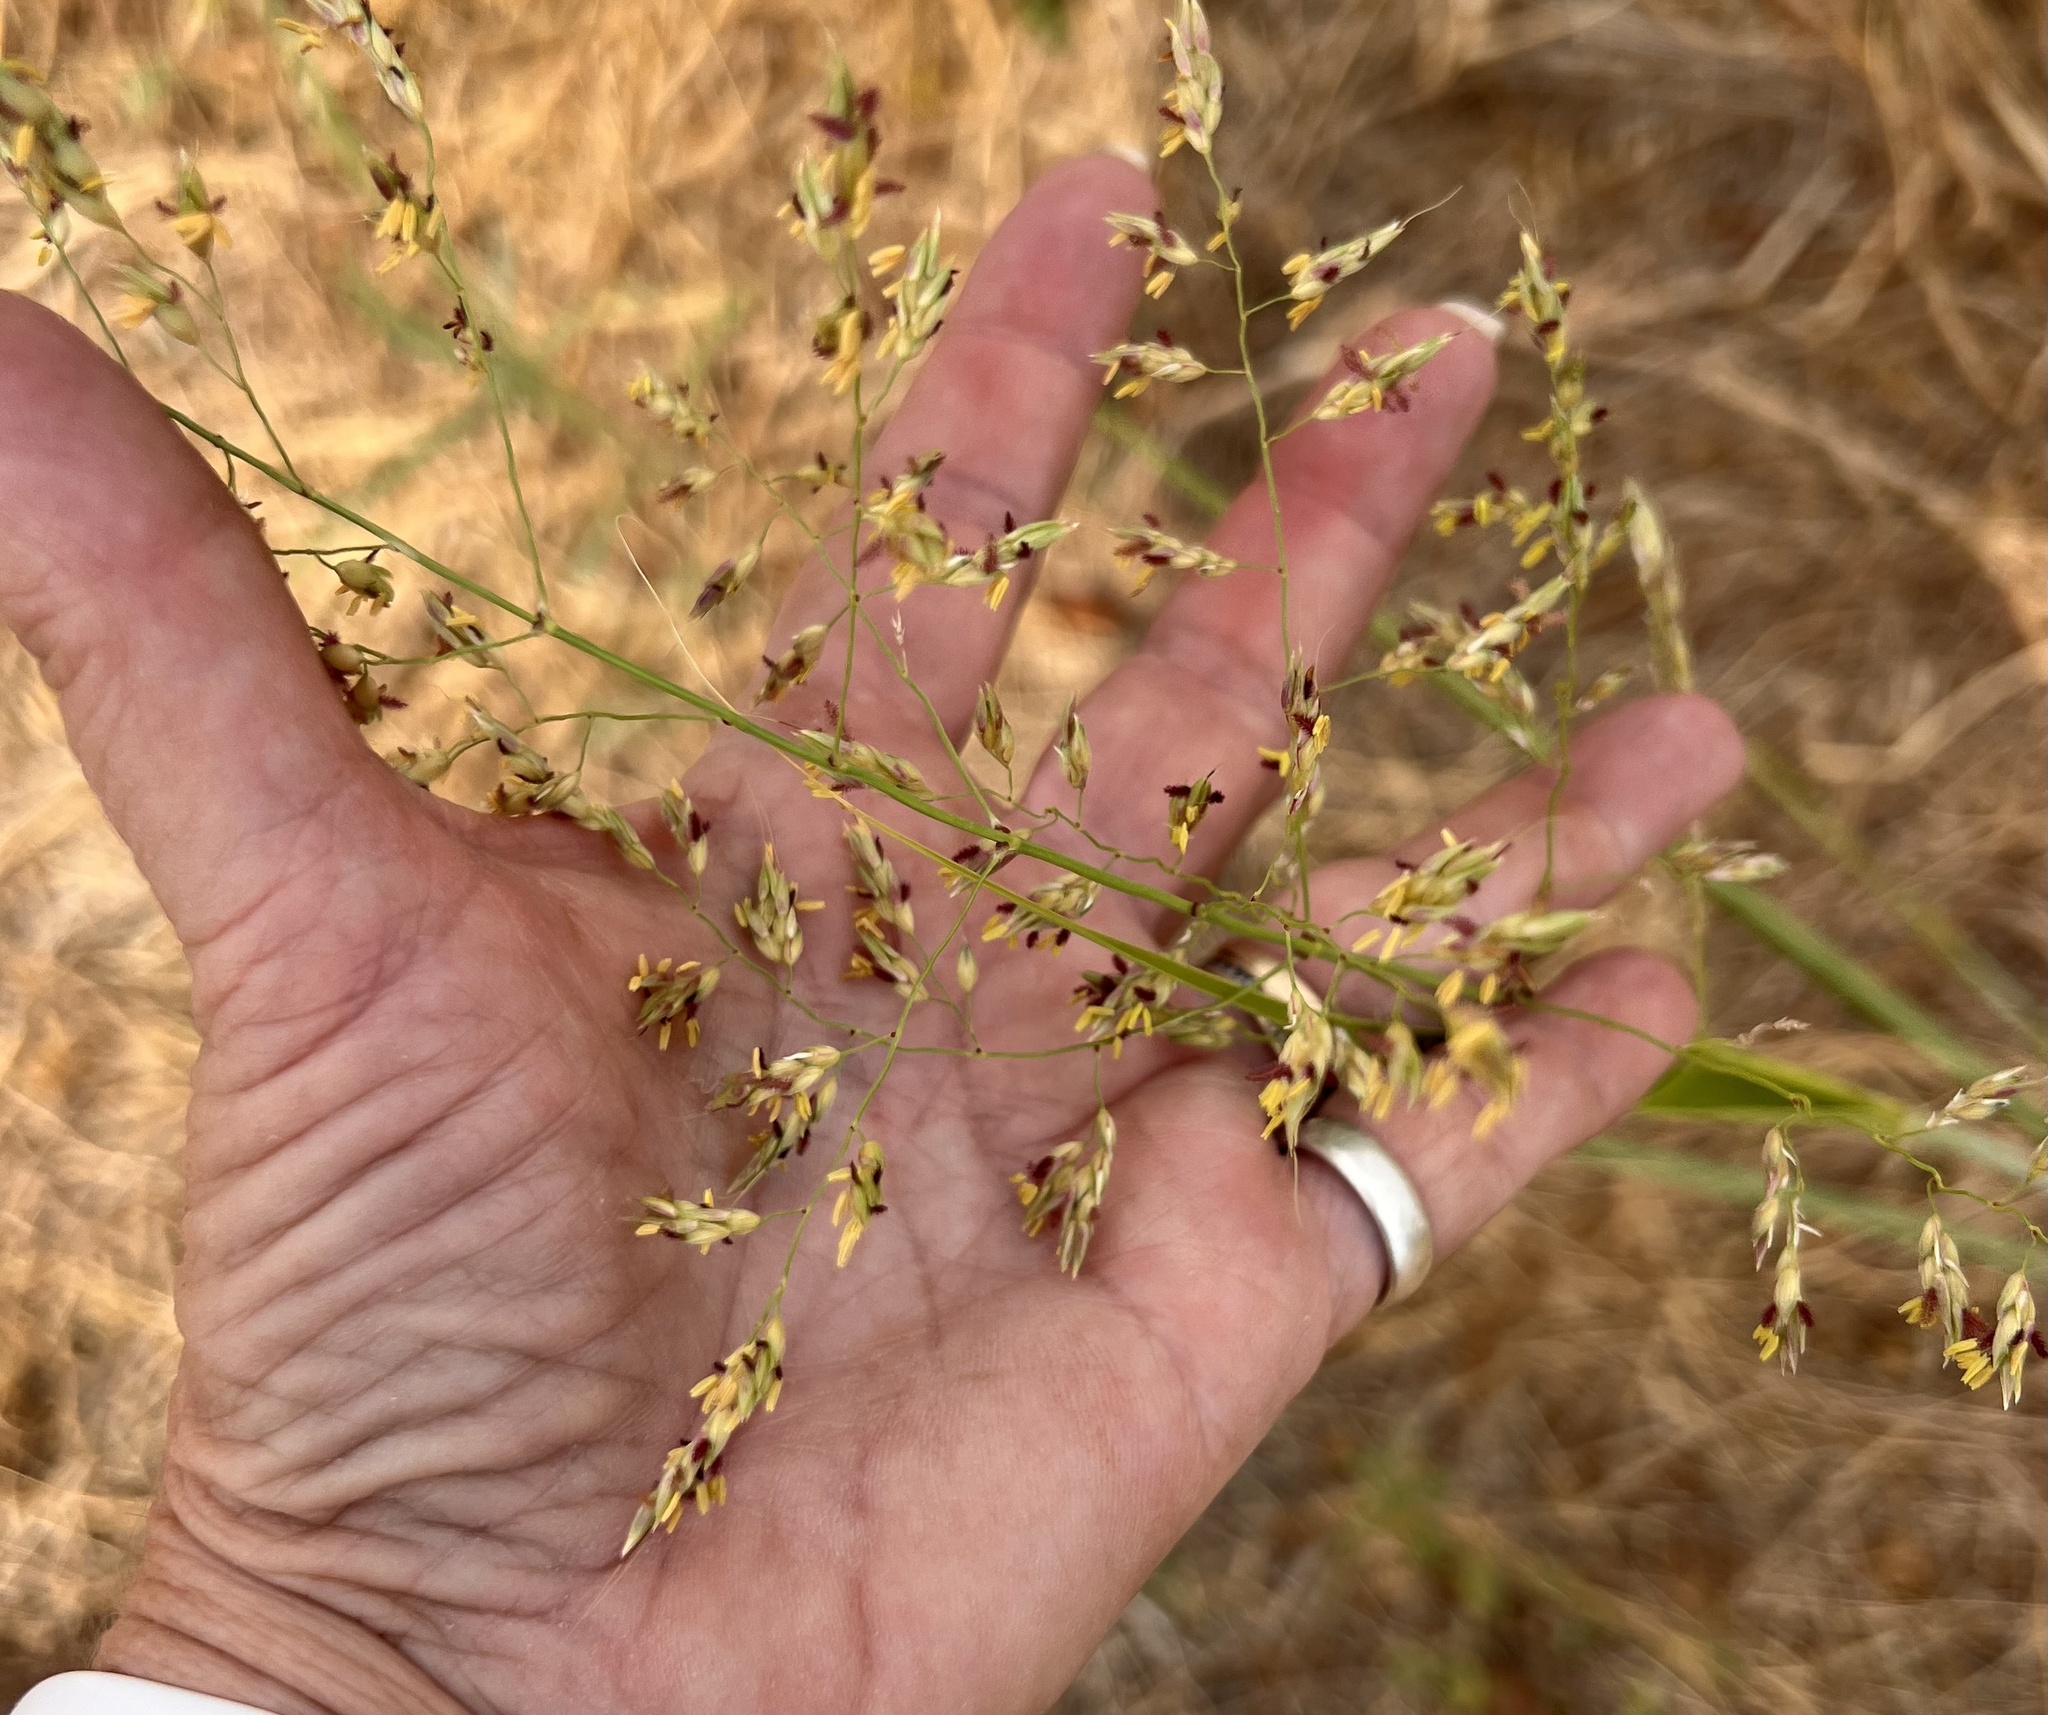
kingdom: Plantae
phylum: Tracheophyta
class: Liliopsida
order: Poales
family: Poaceae
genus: Sorghum
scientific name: Sorghum halepense
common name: Johnson-grass
